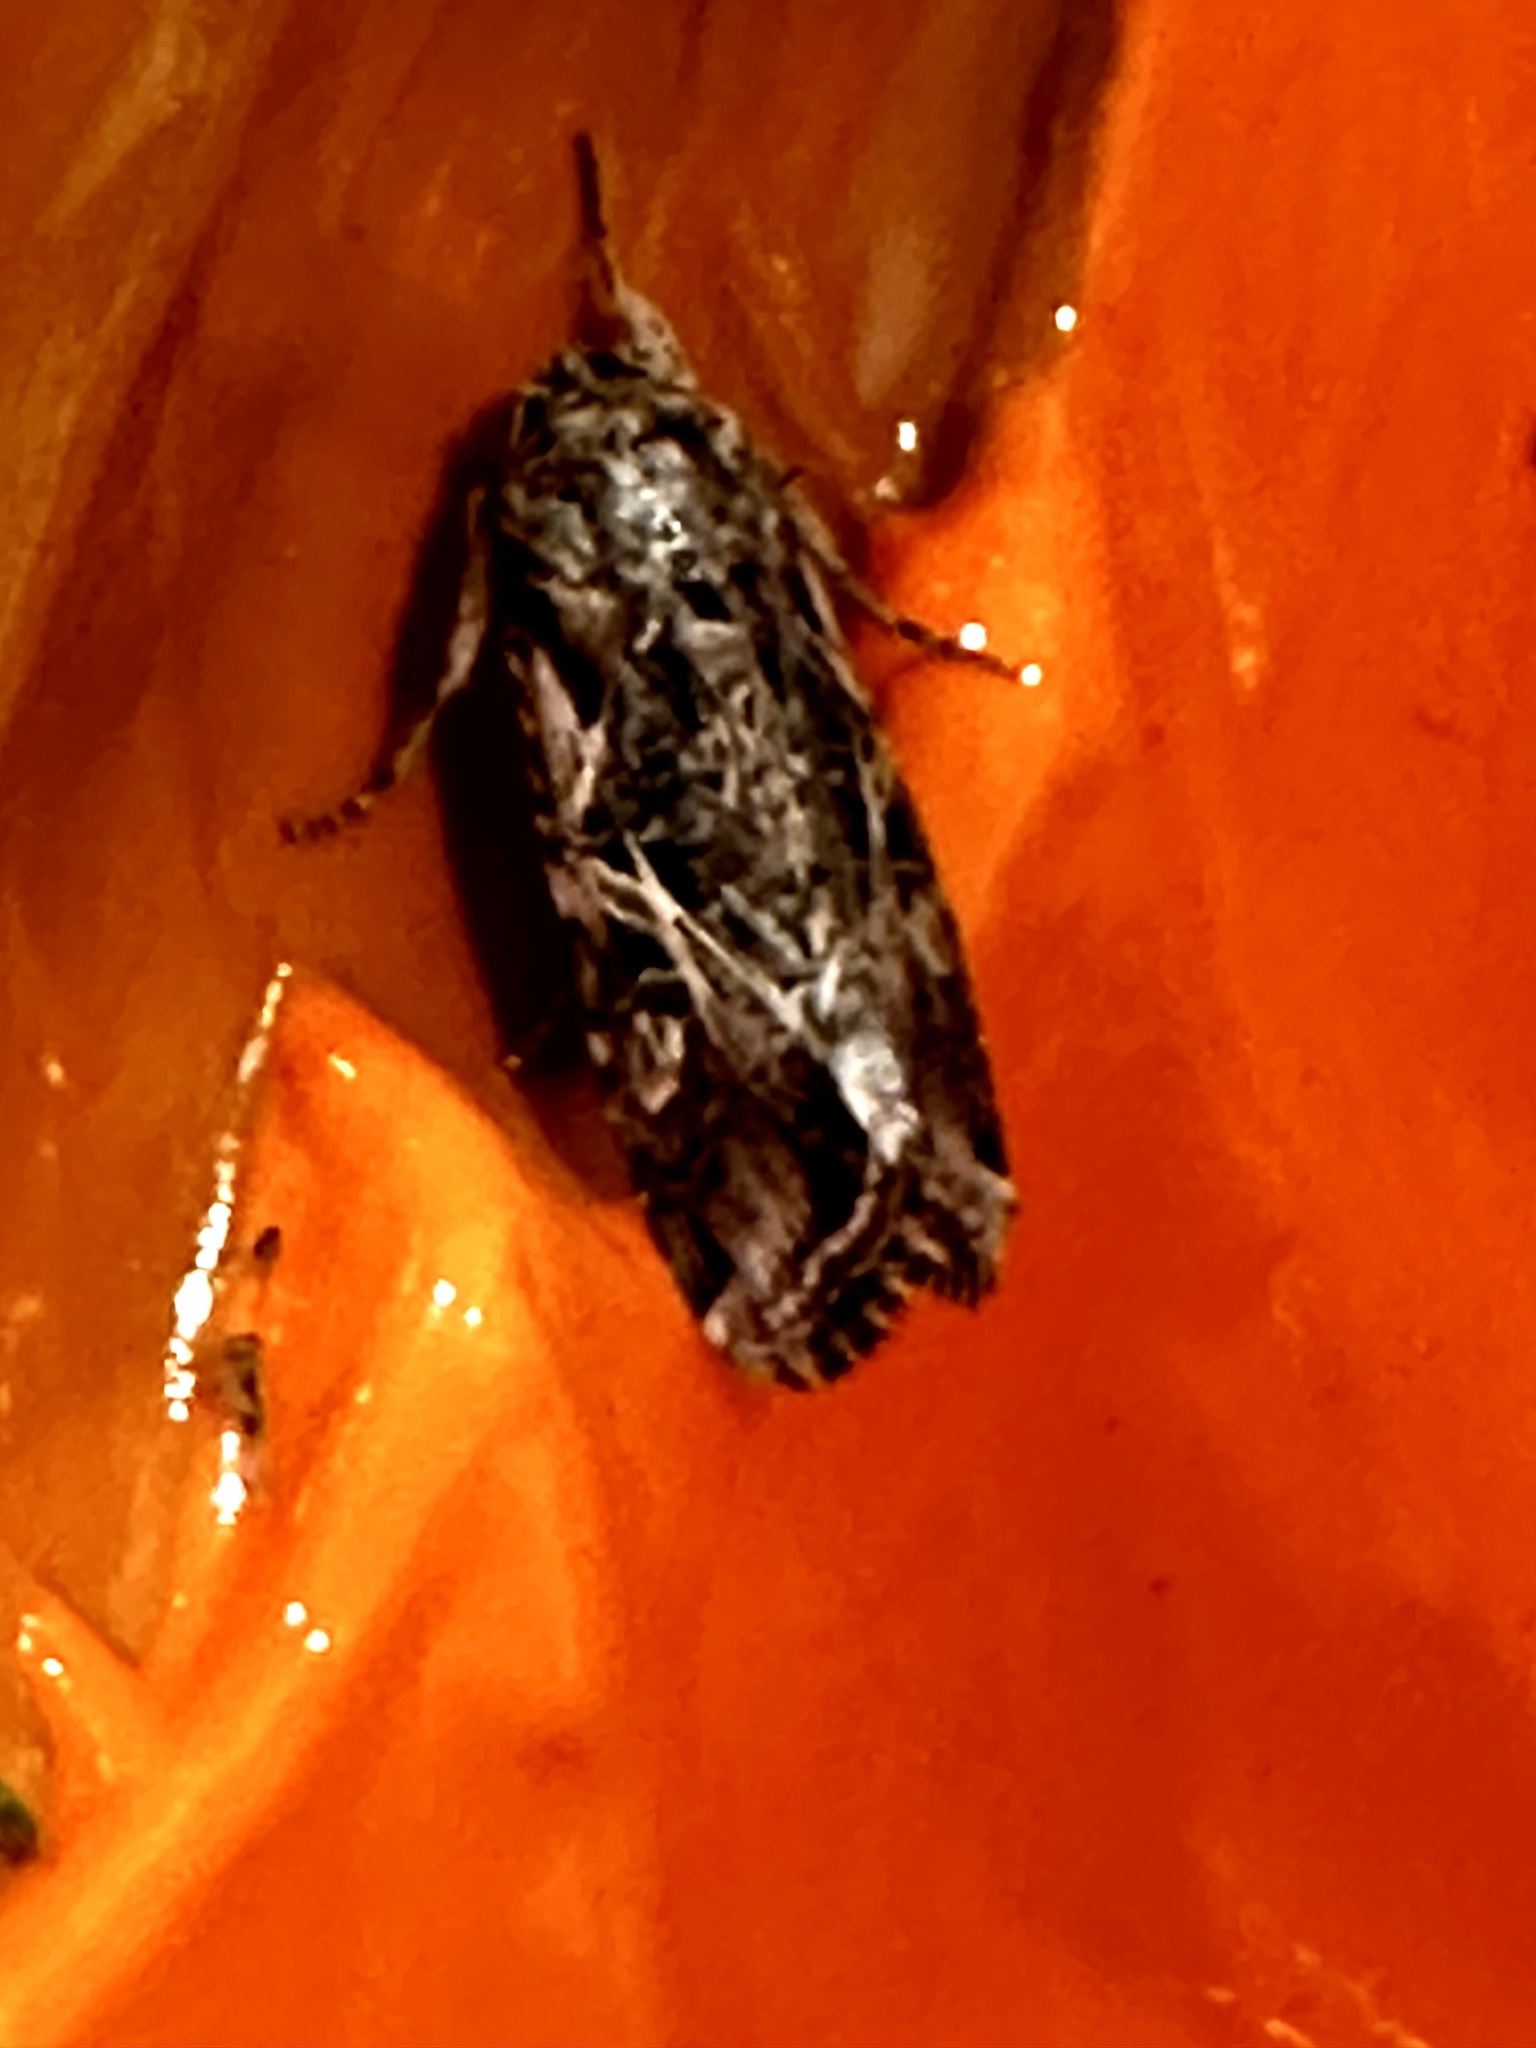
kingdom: Animalia
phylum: Arthropoda
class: Insecta
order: Lepidoptera
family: Noctuidae
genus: Spodoptera
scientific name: Spodoptera ornithogalli
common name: Yellow-striped armyworm
